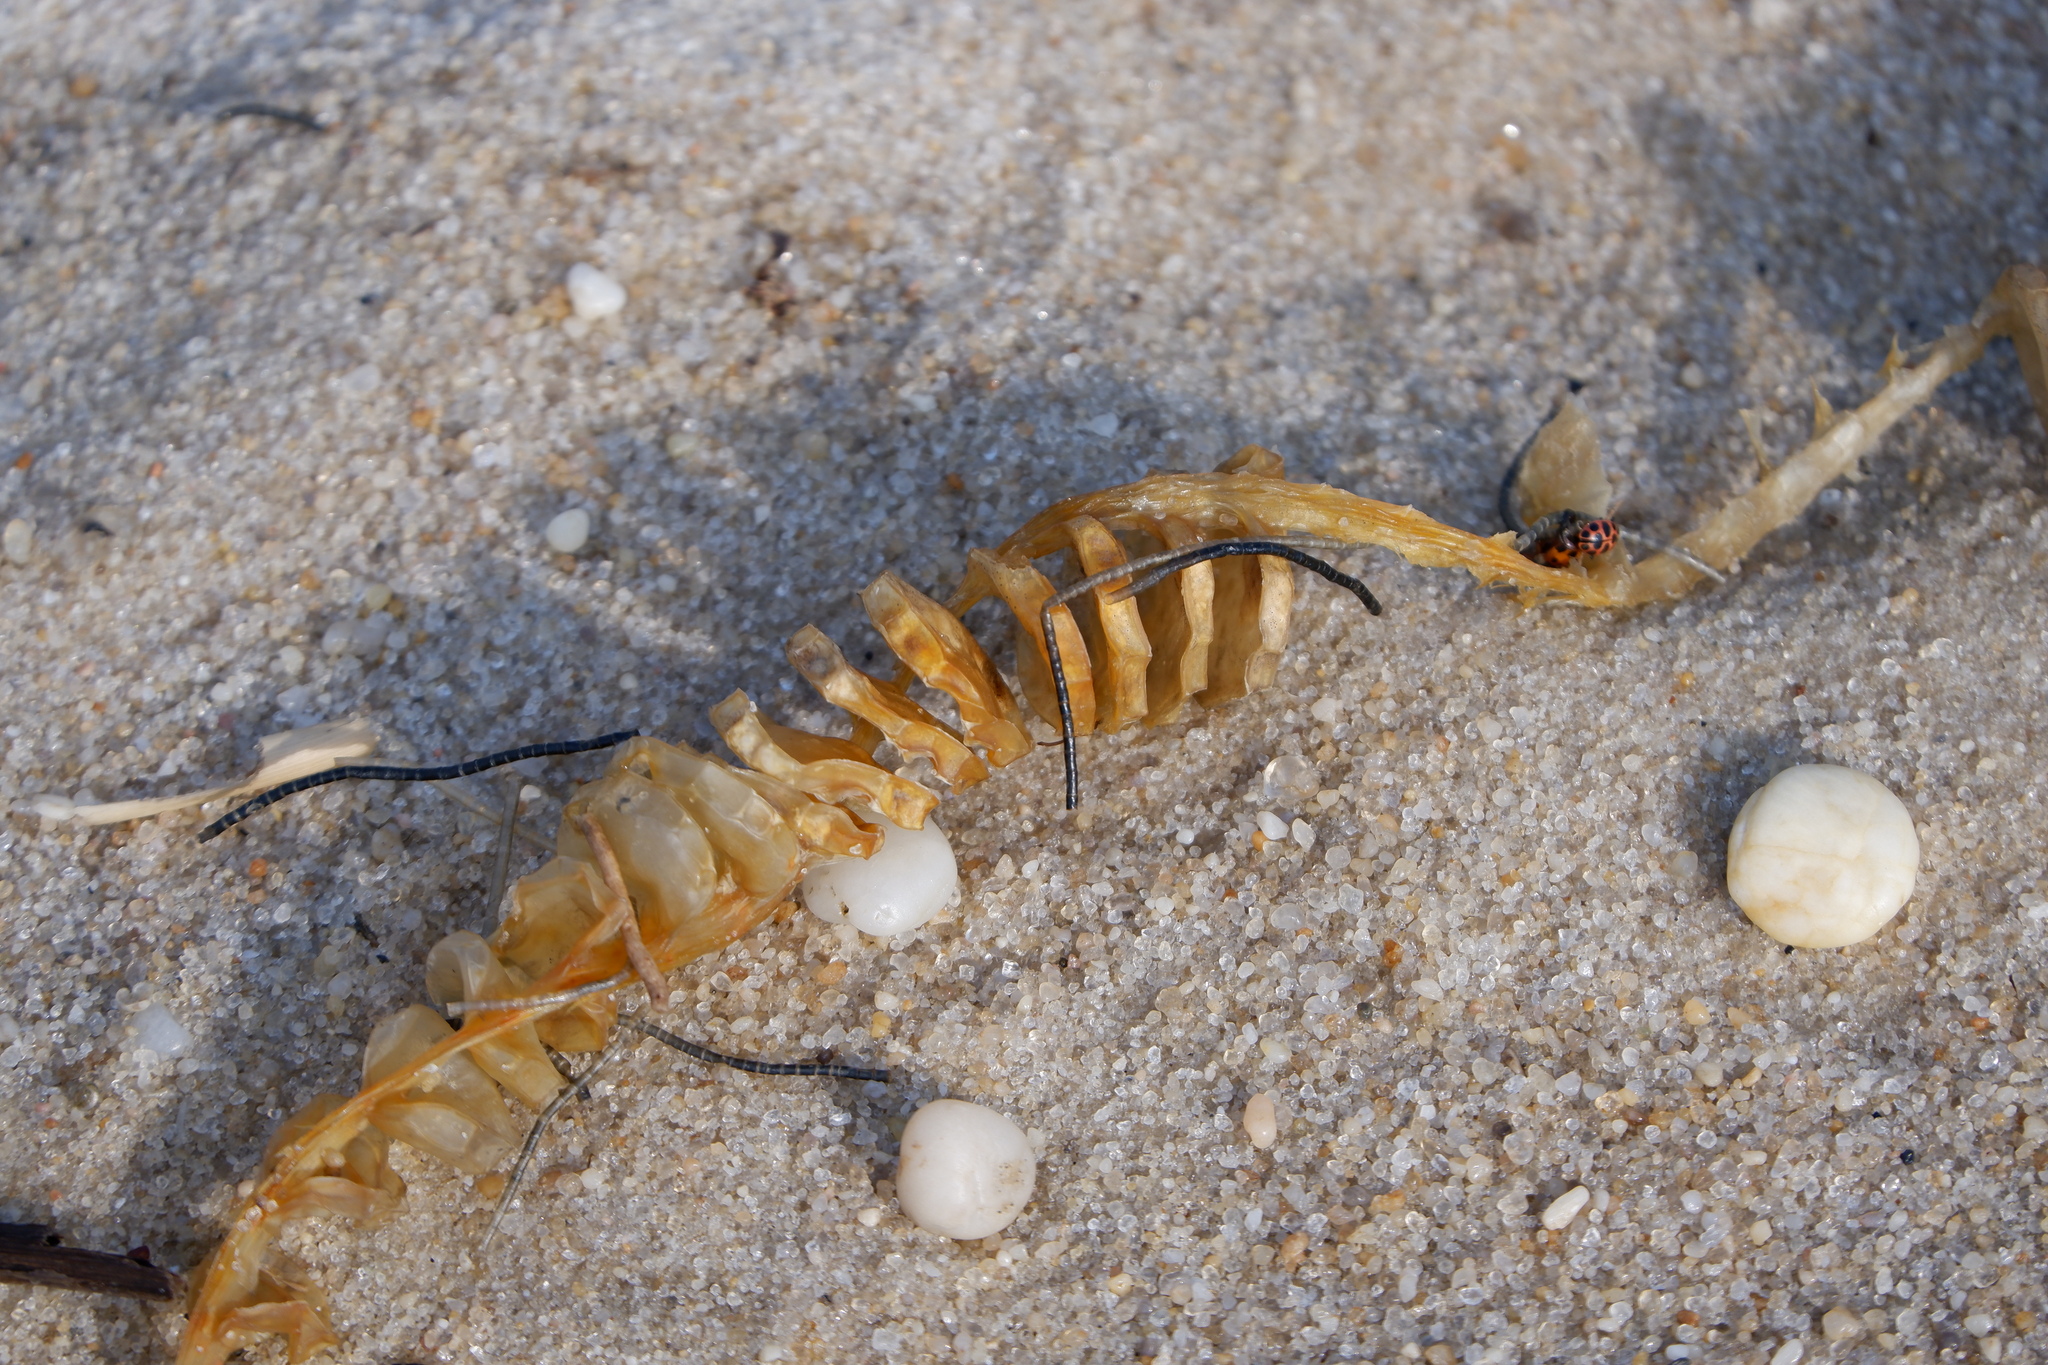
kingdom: Animalia
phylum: Mollusca
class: Gastropoda
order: Neogastropoda
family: Busyconidae
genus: Busycon
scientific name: Busycon carica
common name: Knobbed whelk
